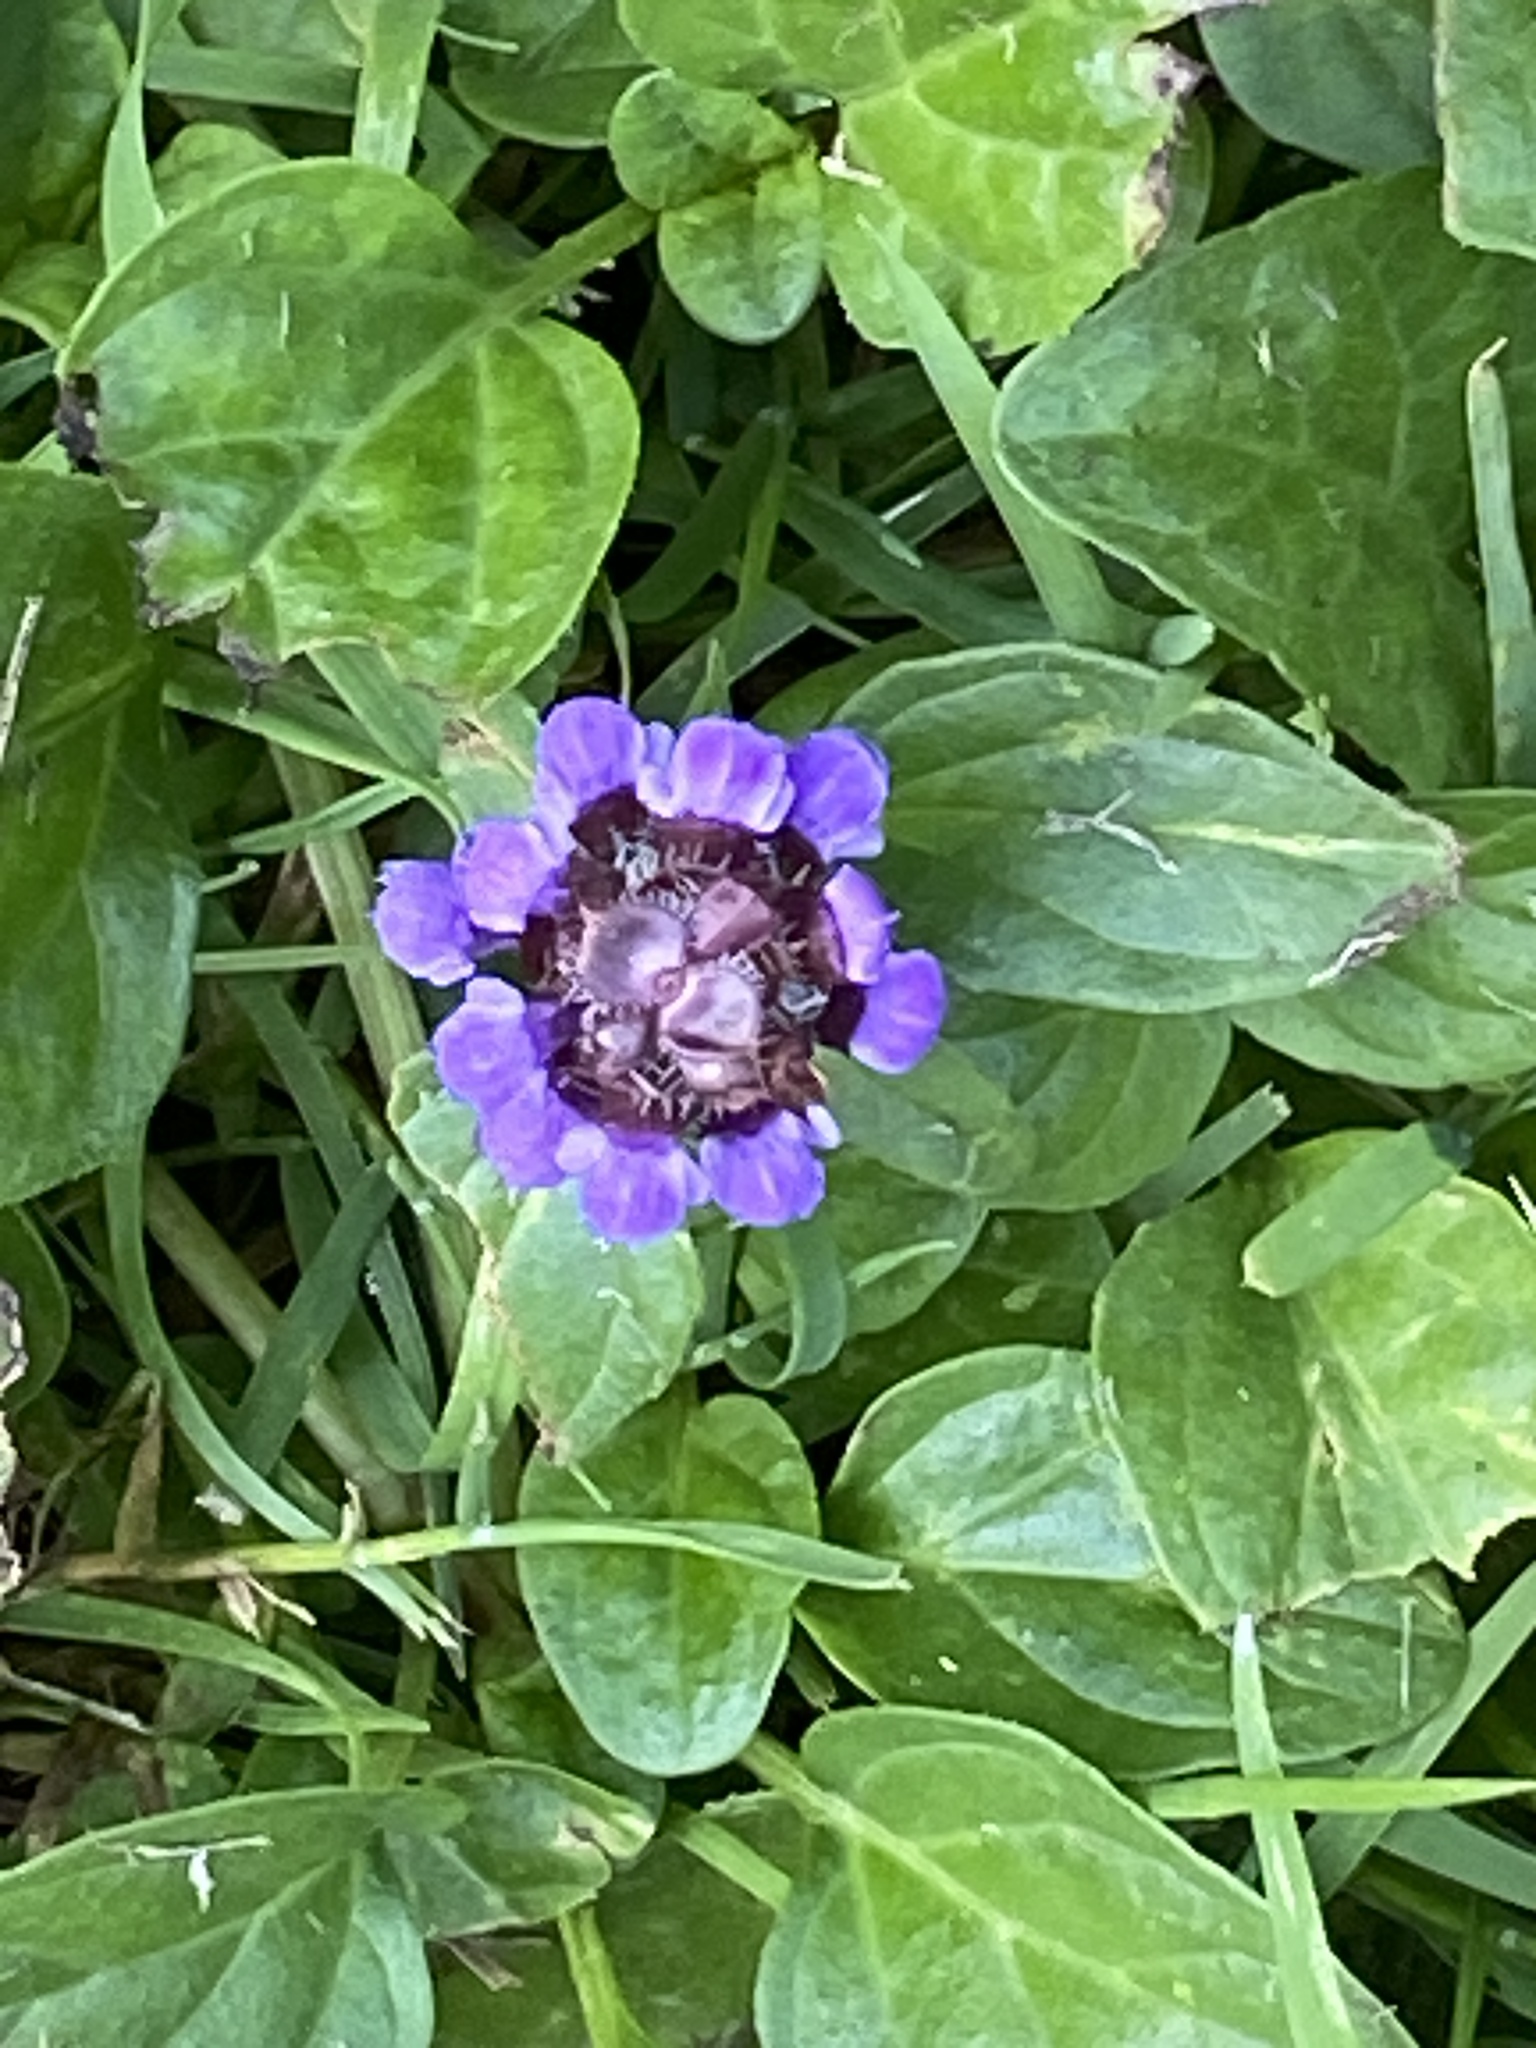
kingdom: Plantae
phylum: Tracheophyta
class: Magnoliopsida
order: Lamiales
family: Lamiaceae
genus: Prunella
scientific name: Prunella vulgaris
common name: Heal-all
